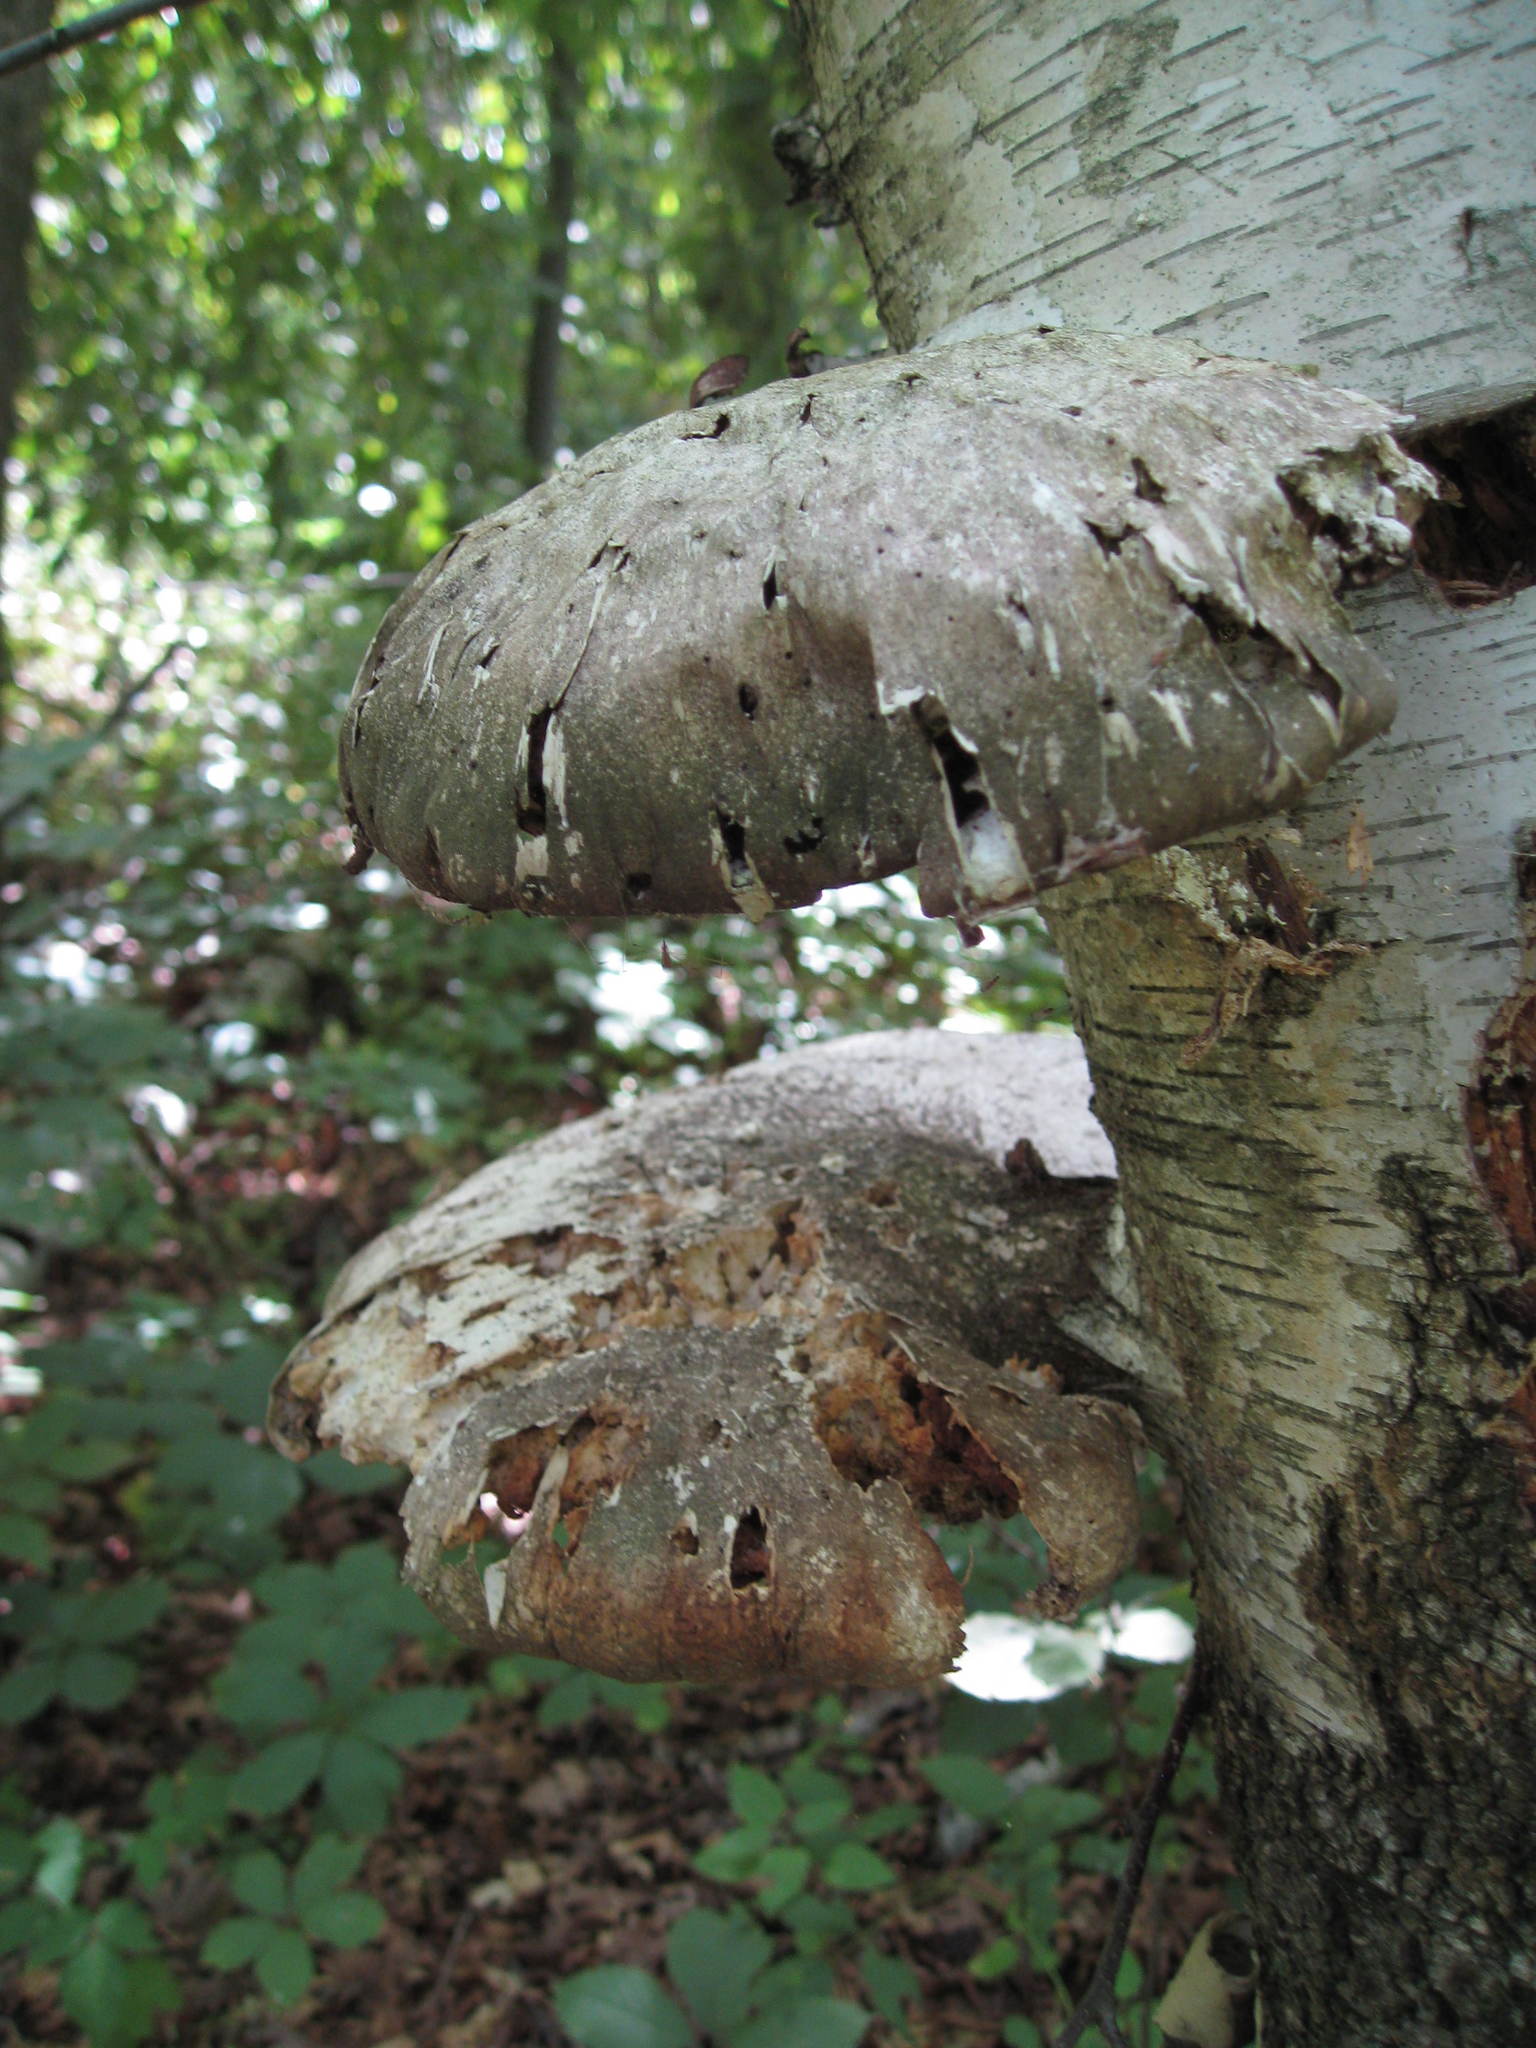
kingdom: Fungi
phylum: Basidiomycota
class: Agaricomycetes
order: Polyporales
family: Fomitopsidaceae
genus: Fomitopsis
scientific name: Fomitopsis betulina
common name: Birch polypore
